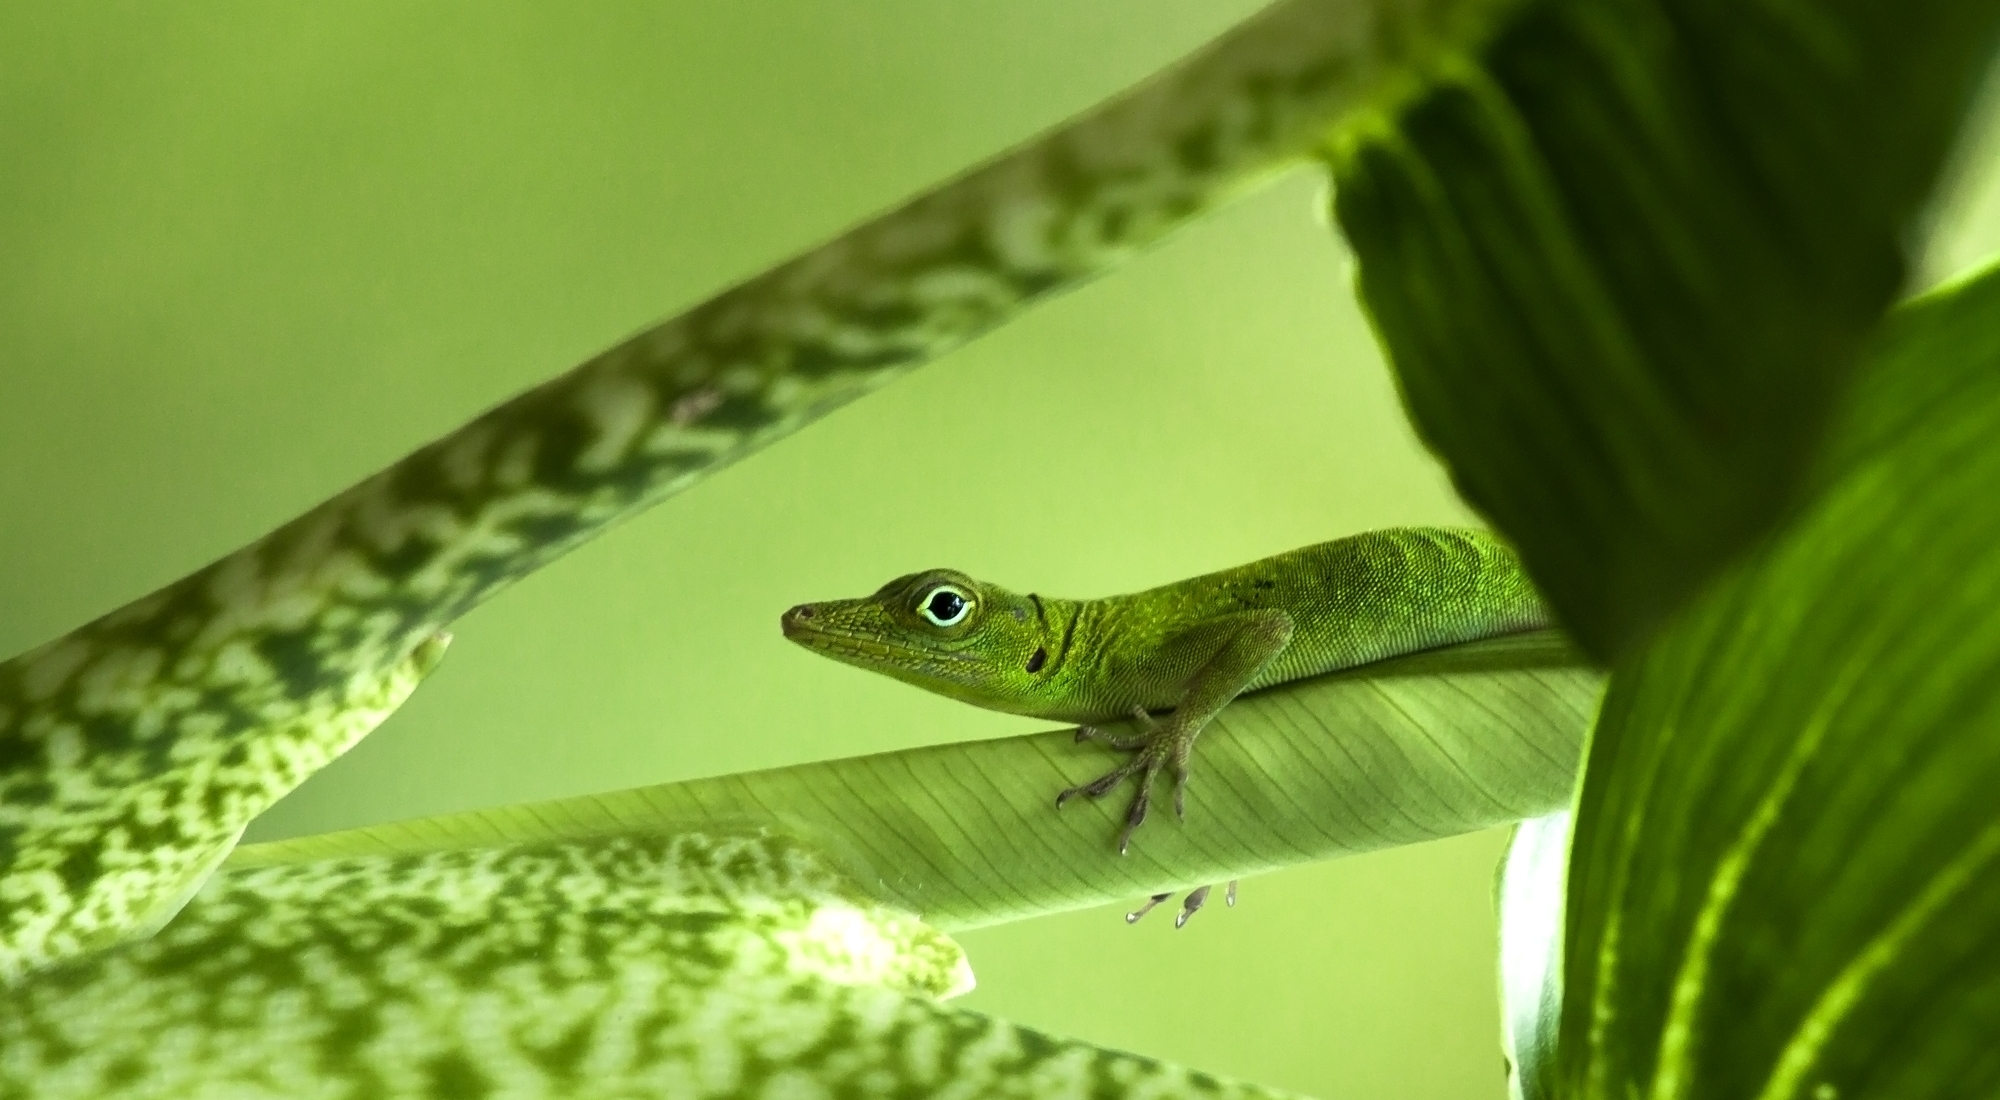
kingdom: Animalia
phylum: Chordata
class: Squamata
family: Dactyloidae
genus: Anolis
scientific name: Anolis evermanni
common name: Emerald anole
